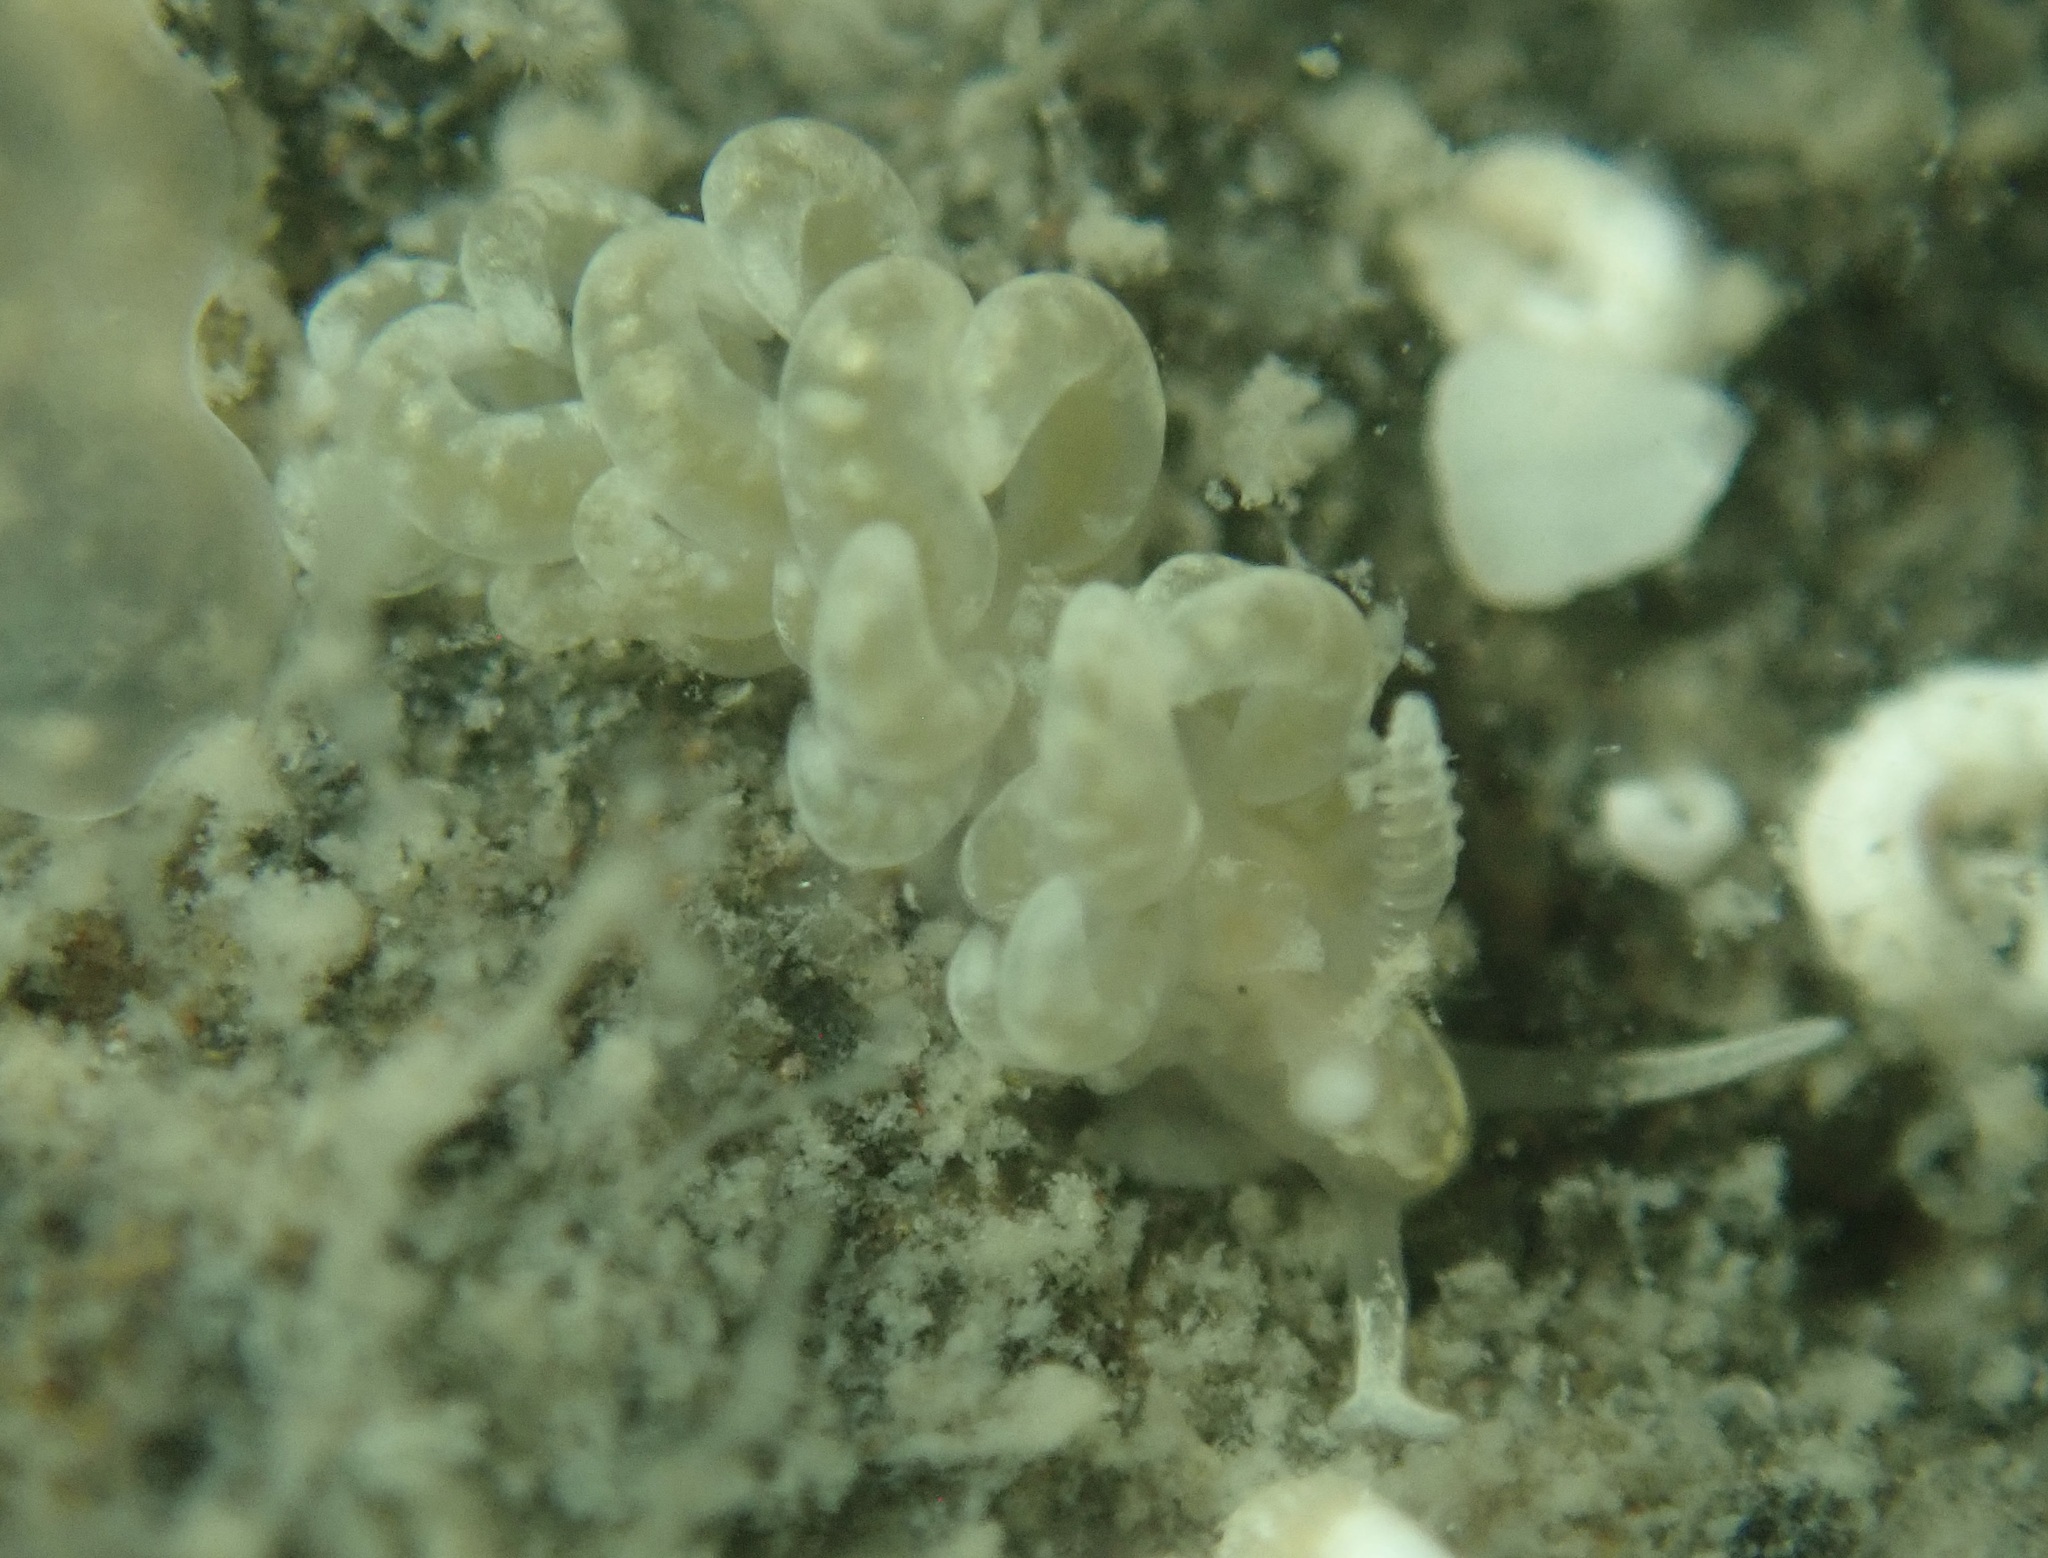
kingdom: Animalia
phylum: Mollusca
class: Gastropoda
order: Nudibranchia
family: Aeolidiidae
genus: Spurilla
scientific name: Spurilla braziliana
